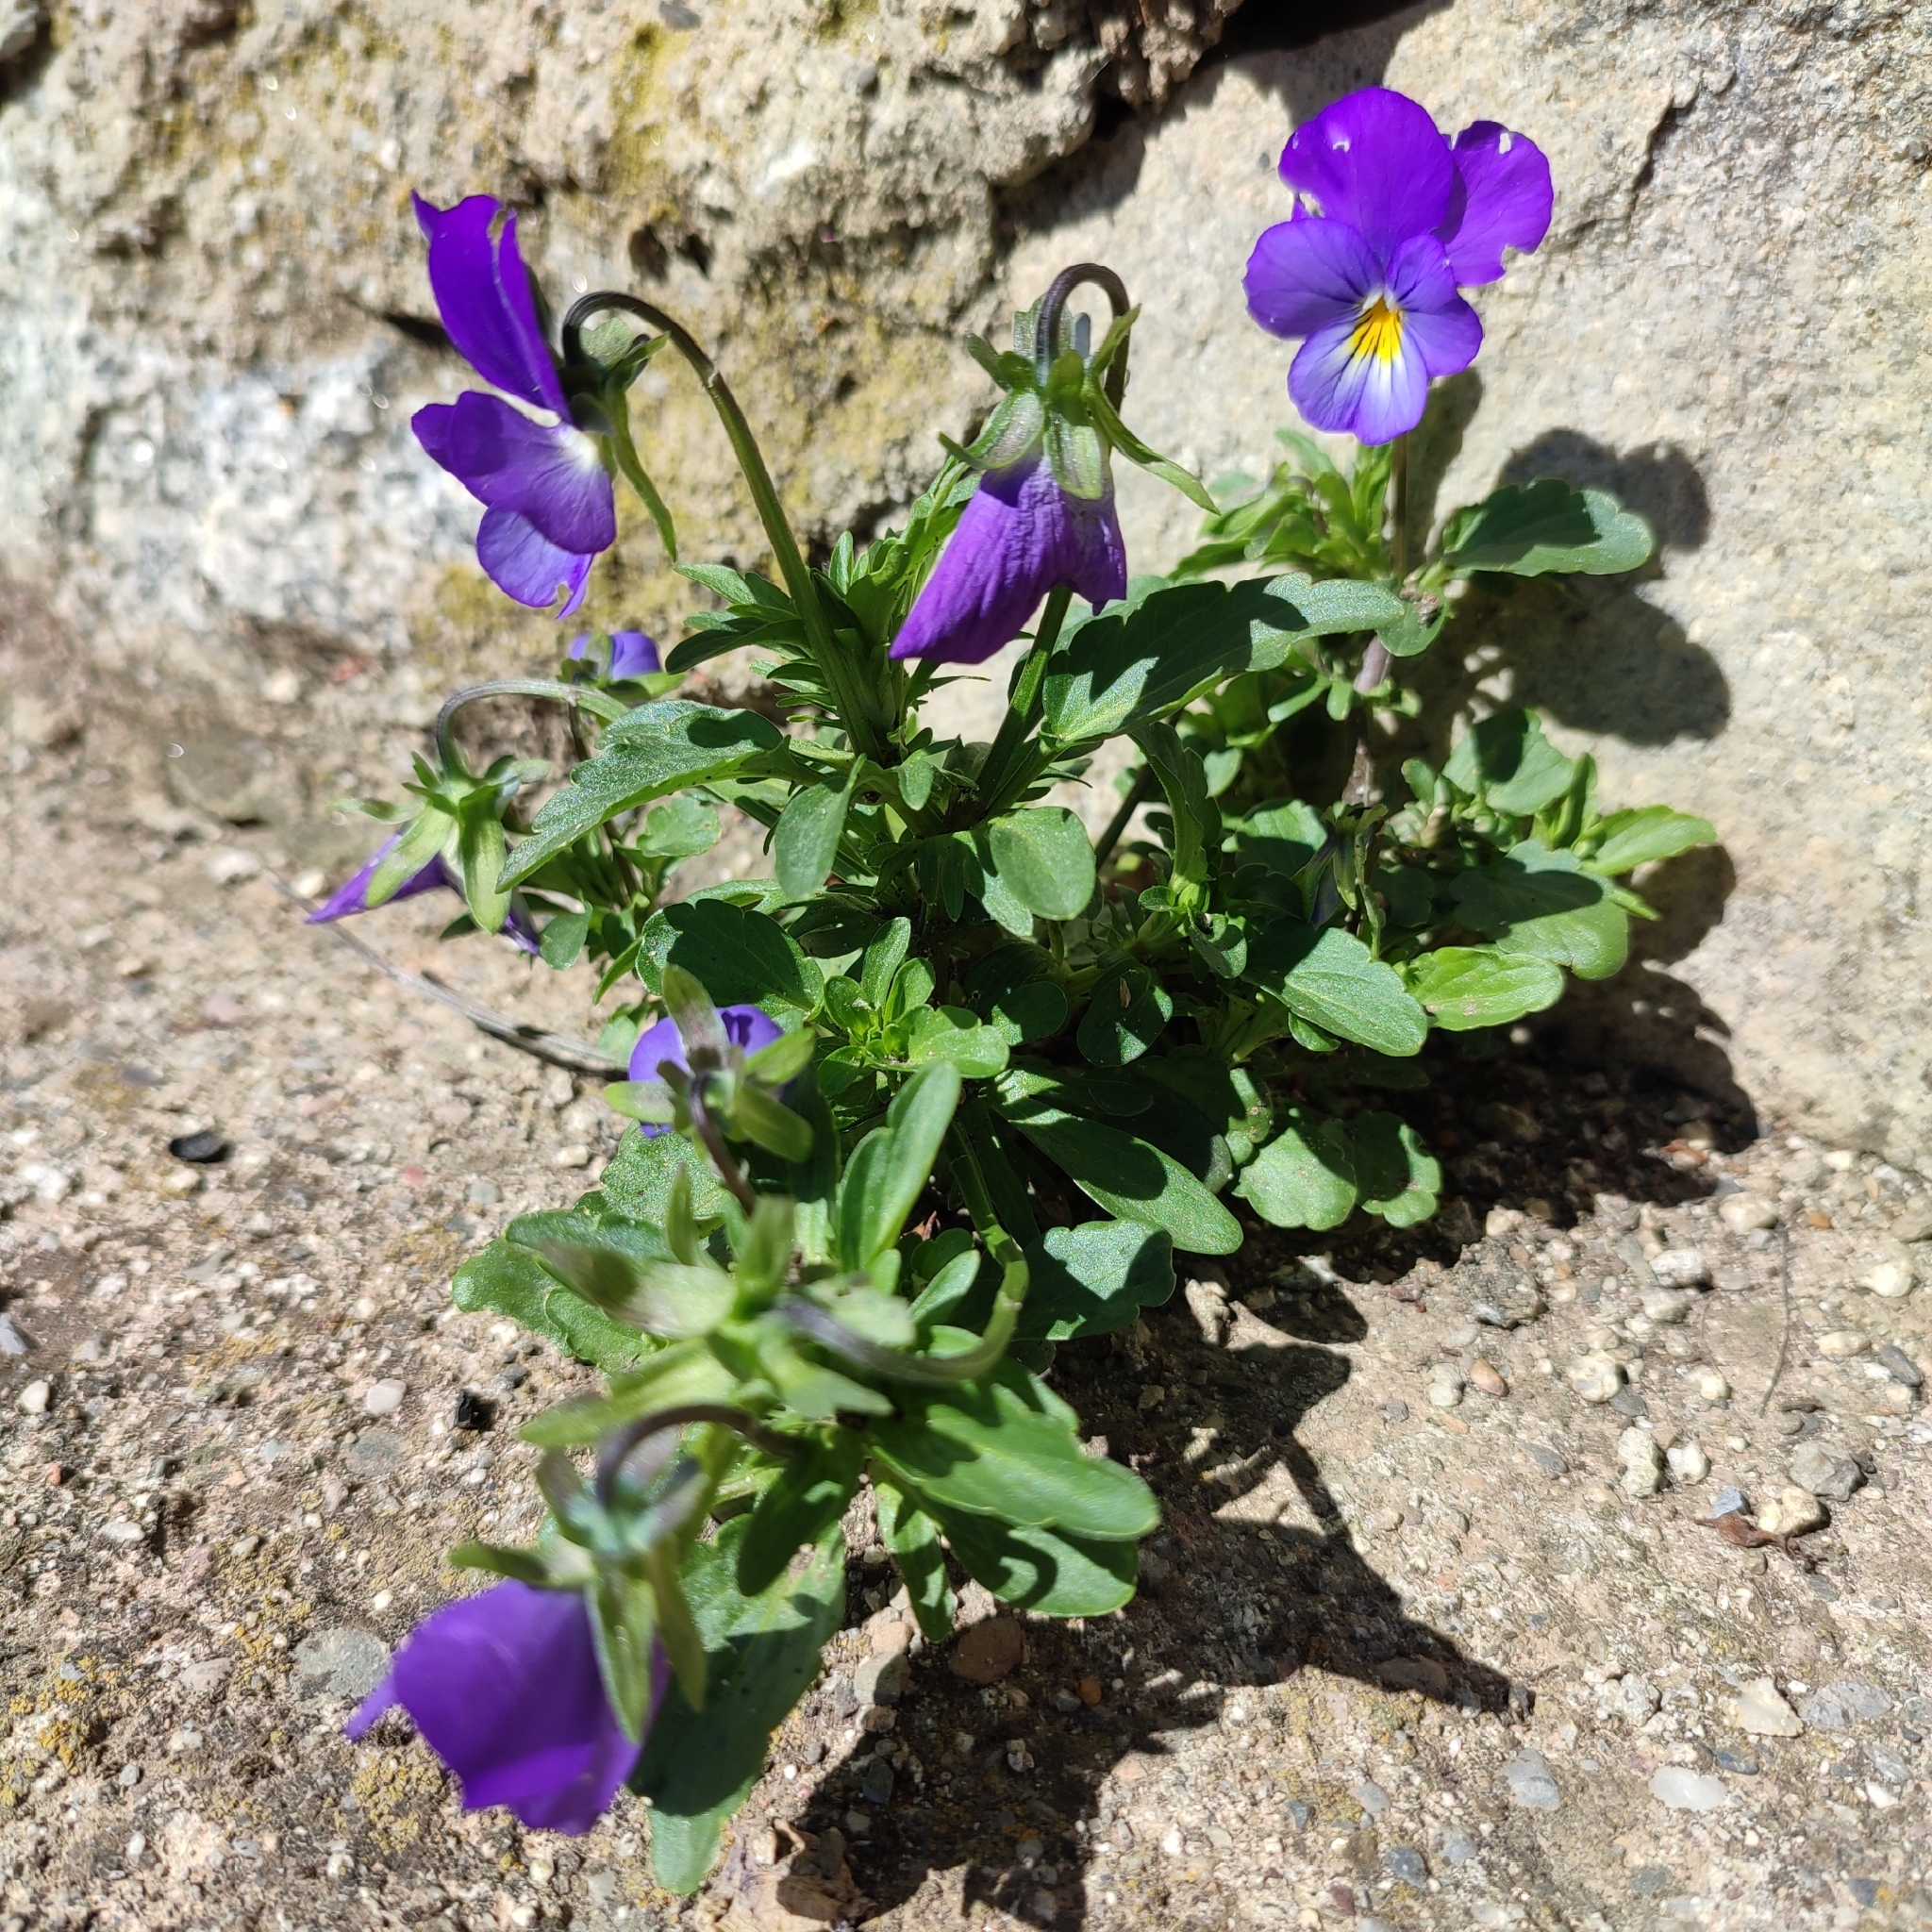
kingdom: Plantae
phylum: Tracheophyta
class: Magnoliopsida
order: Malpighiales
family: Violaceae
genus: Viola
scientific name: Viola wittrockiana
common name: Garden pansy
